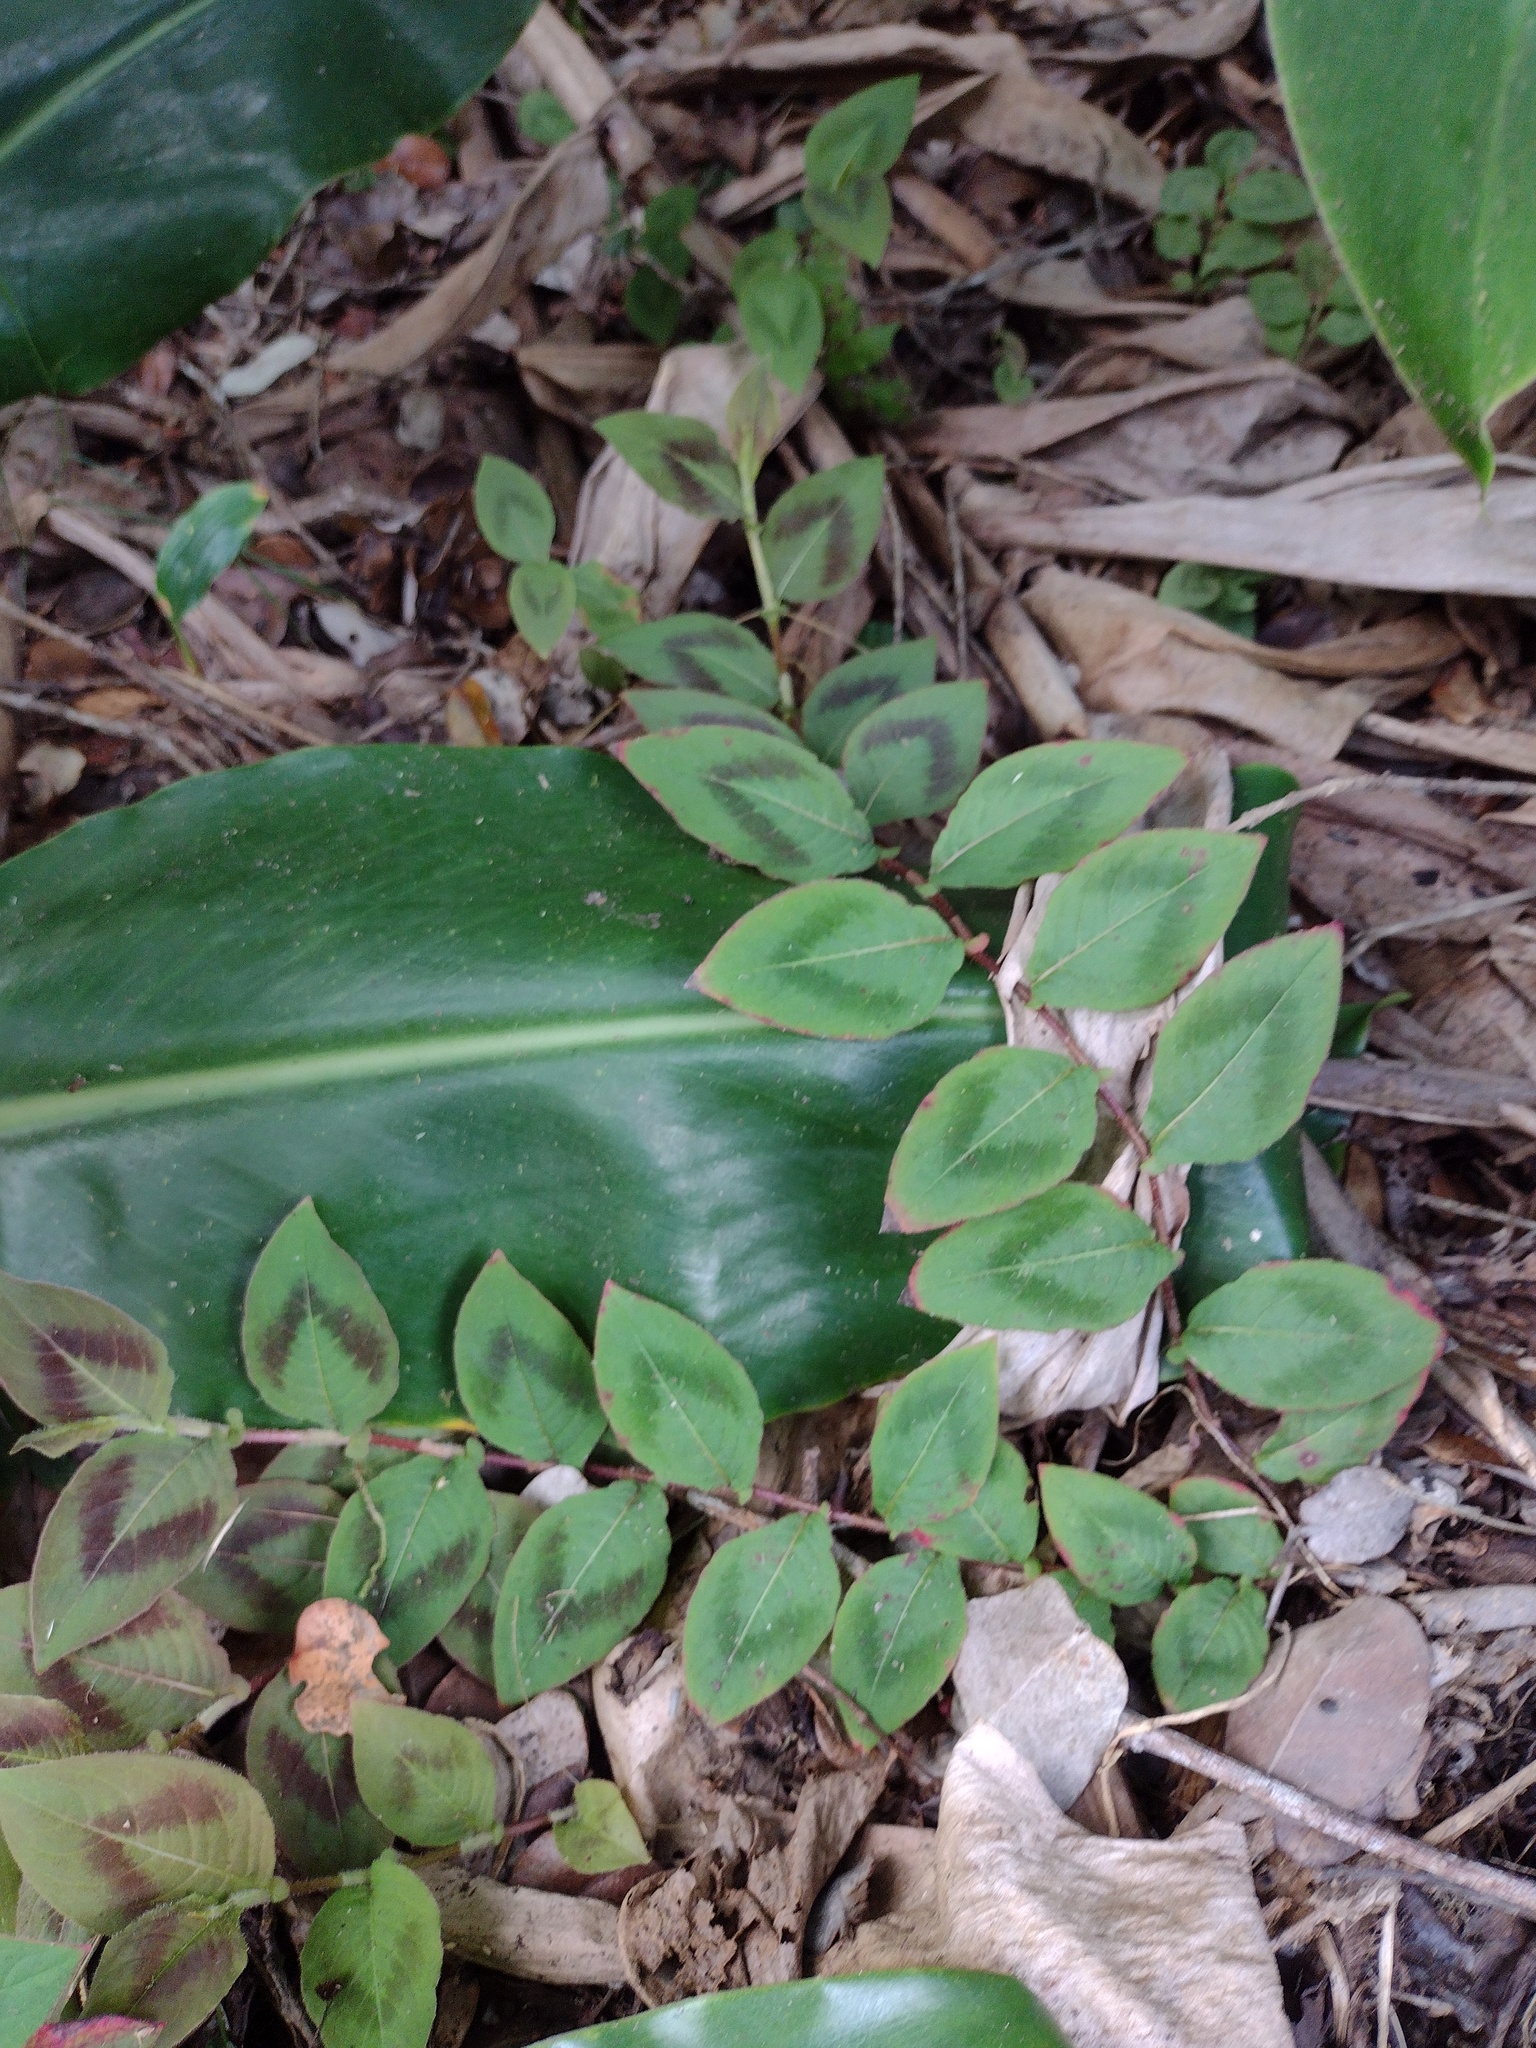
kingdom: Plantae
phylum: Tracheophyta
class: Magnoliopsida
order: Caryophyllales
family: Polygonaceae
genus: Persicaria
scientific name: Persicaria capitata
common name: Pinkhead smartweed
